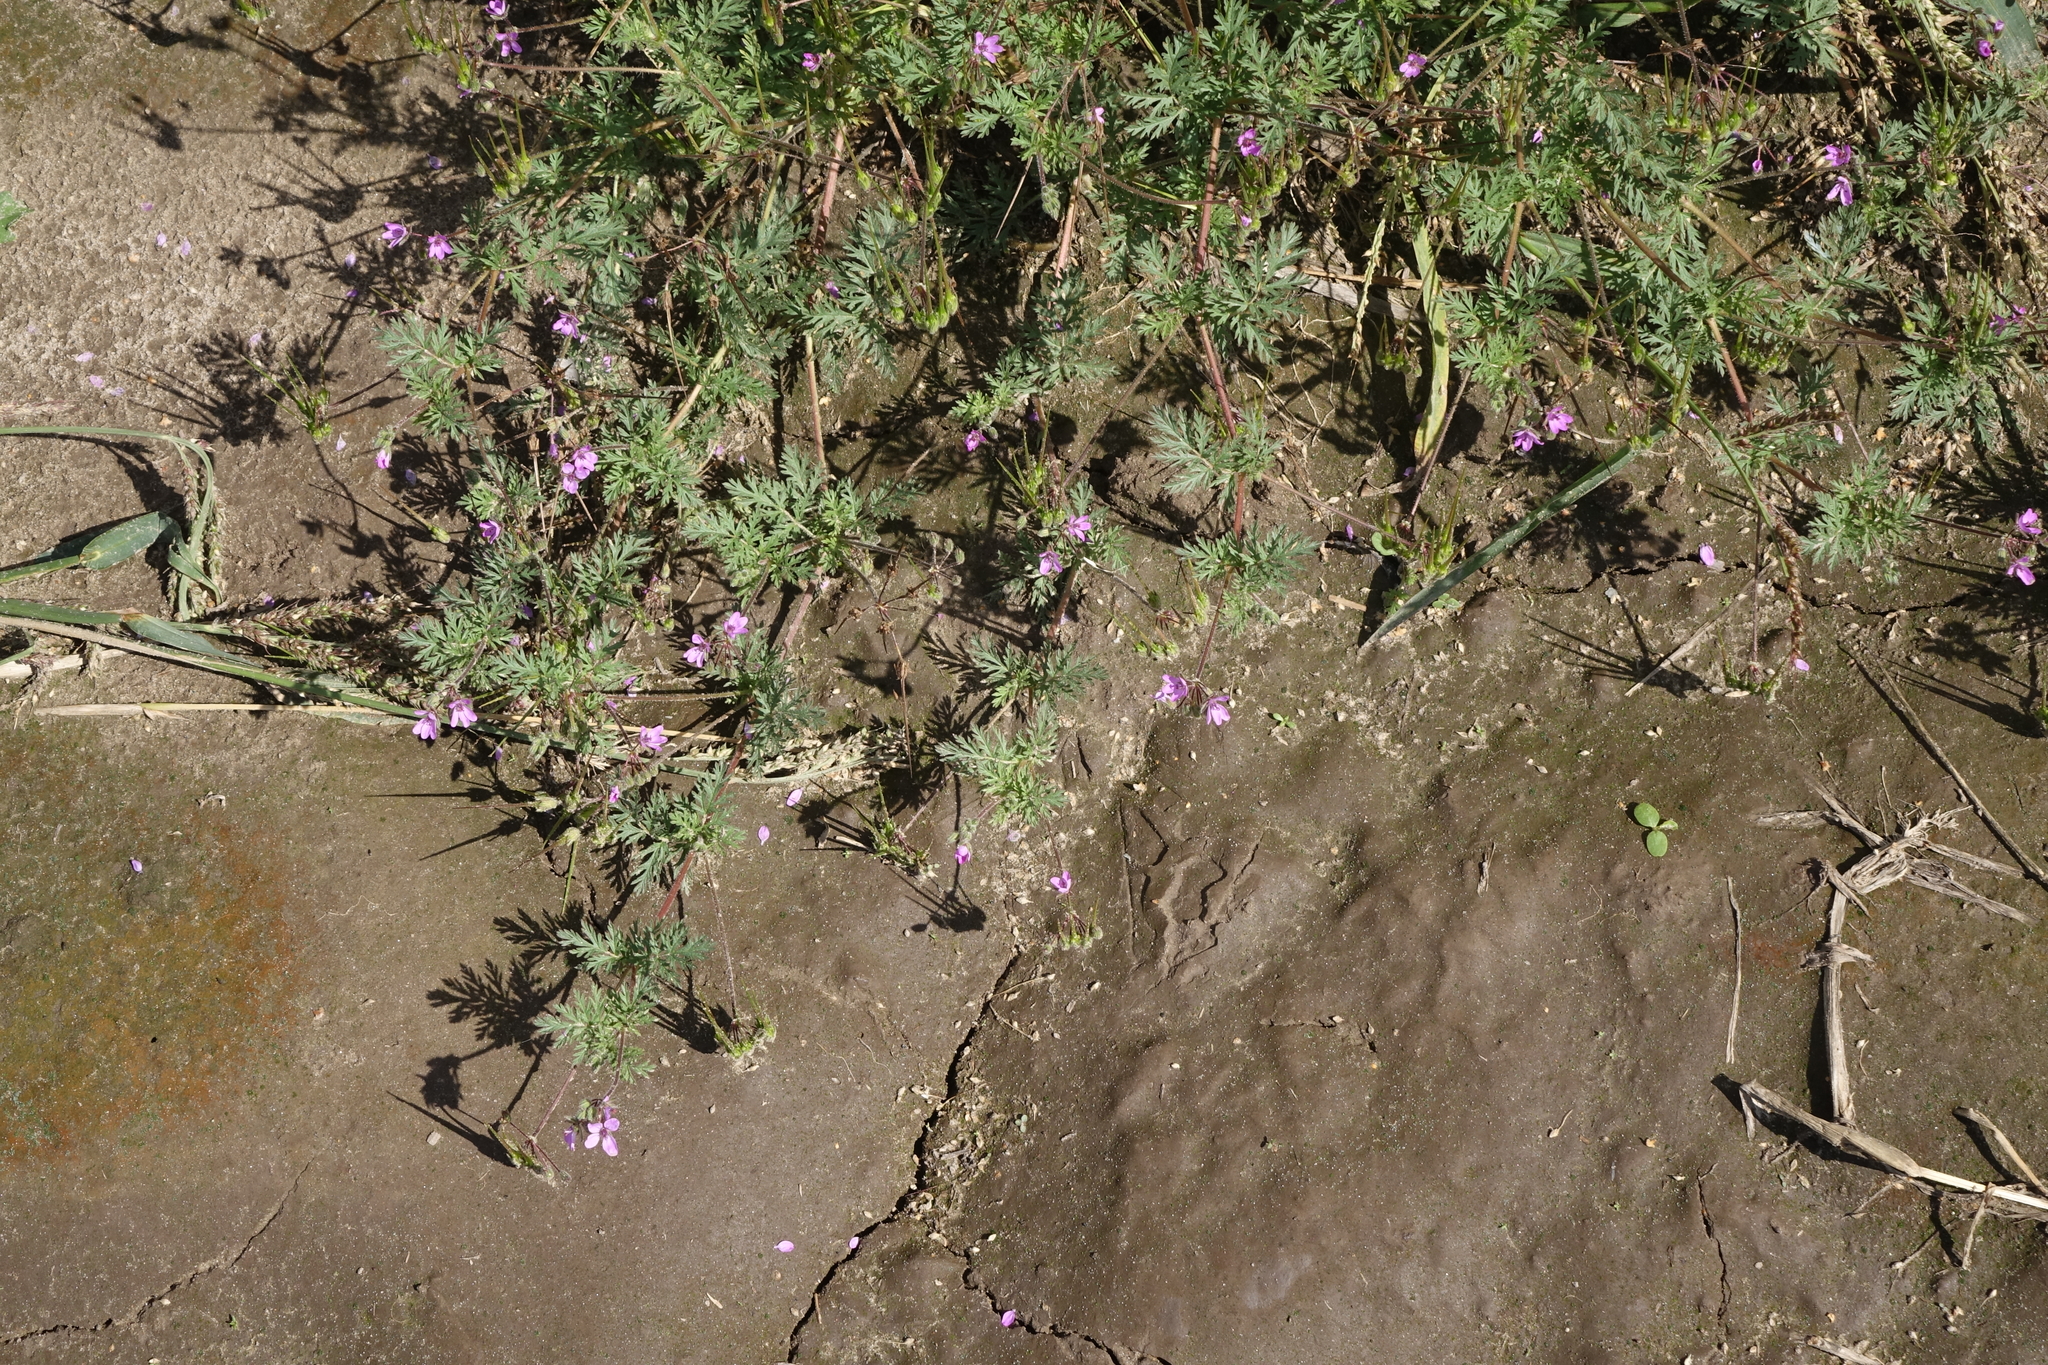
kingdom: Plantae
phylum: Tracheophyta
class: Magnoliopsida
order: Geraniales
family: Geraniaceae
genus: Erodium
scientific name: Erodium cicutarium
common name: Common stork's-bill
